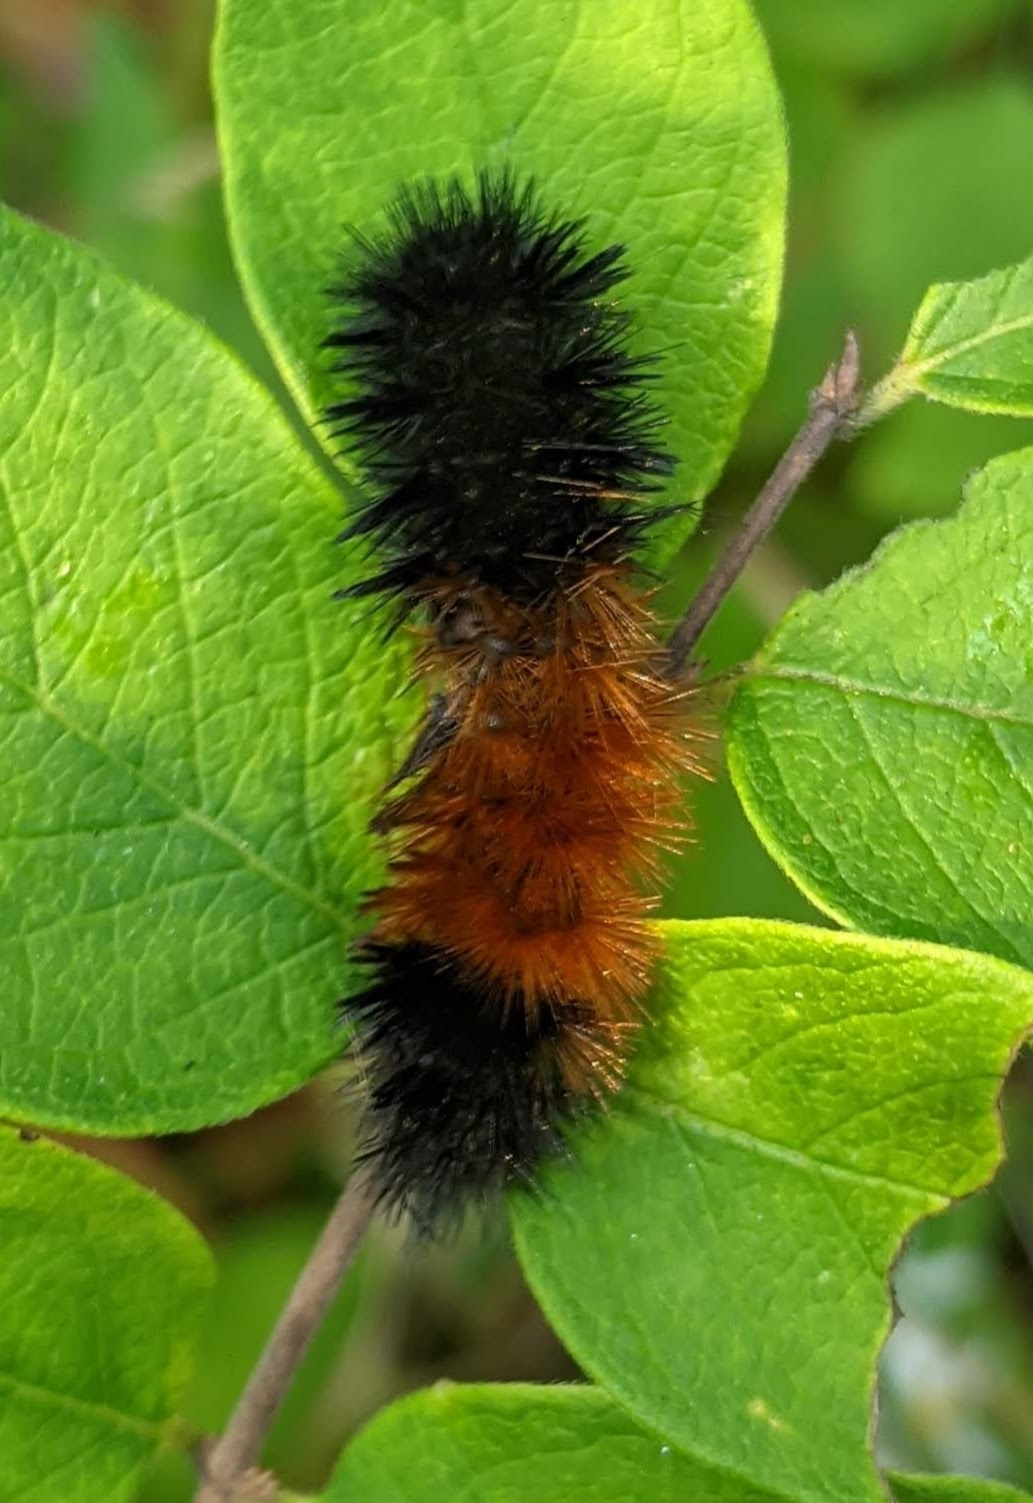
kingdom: Animalia
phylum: Arthropoda
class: Insecta
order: Lepidoptera
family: Erebidae
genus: Pyrrharctia
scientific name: Pyrrharctia isabella
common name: Isabella tiger moth
